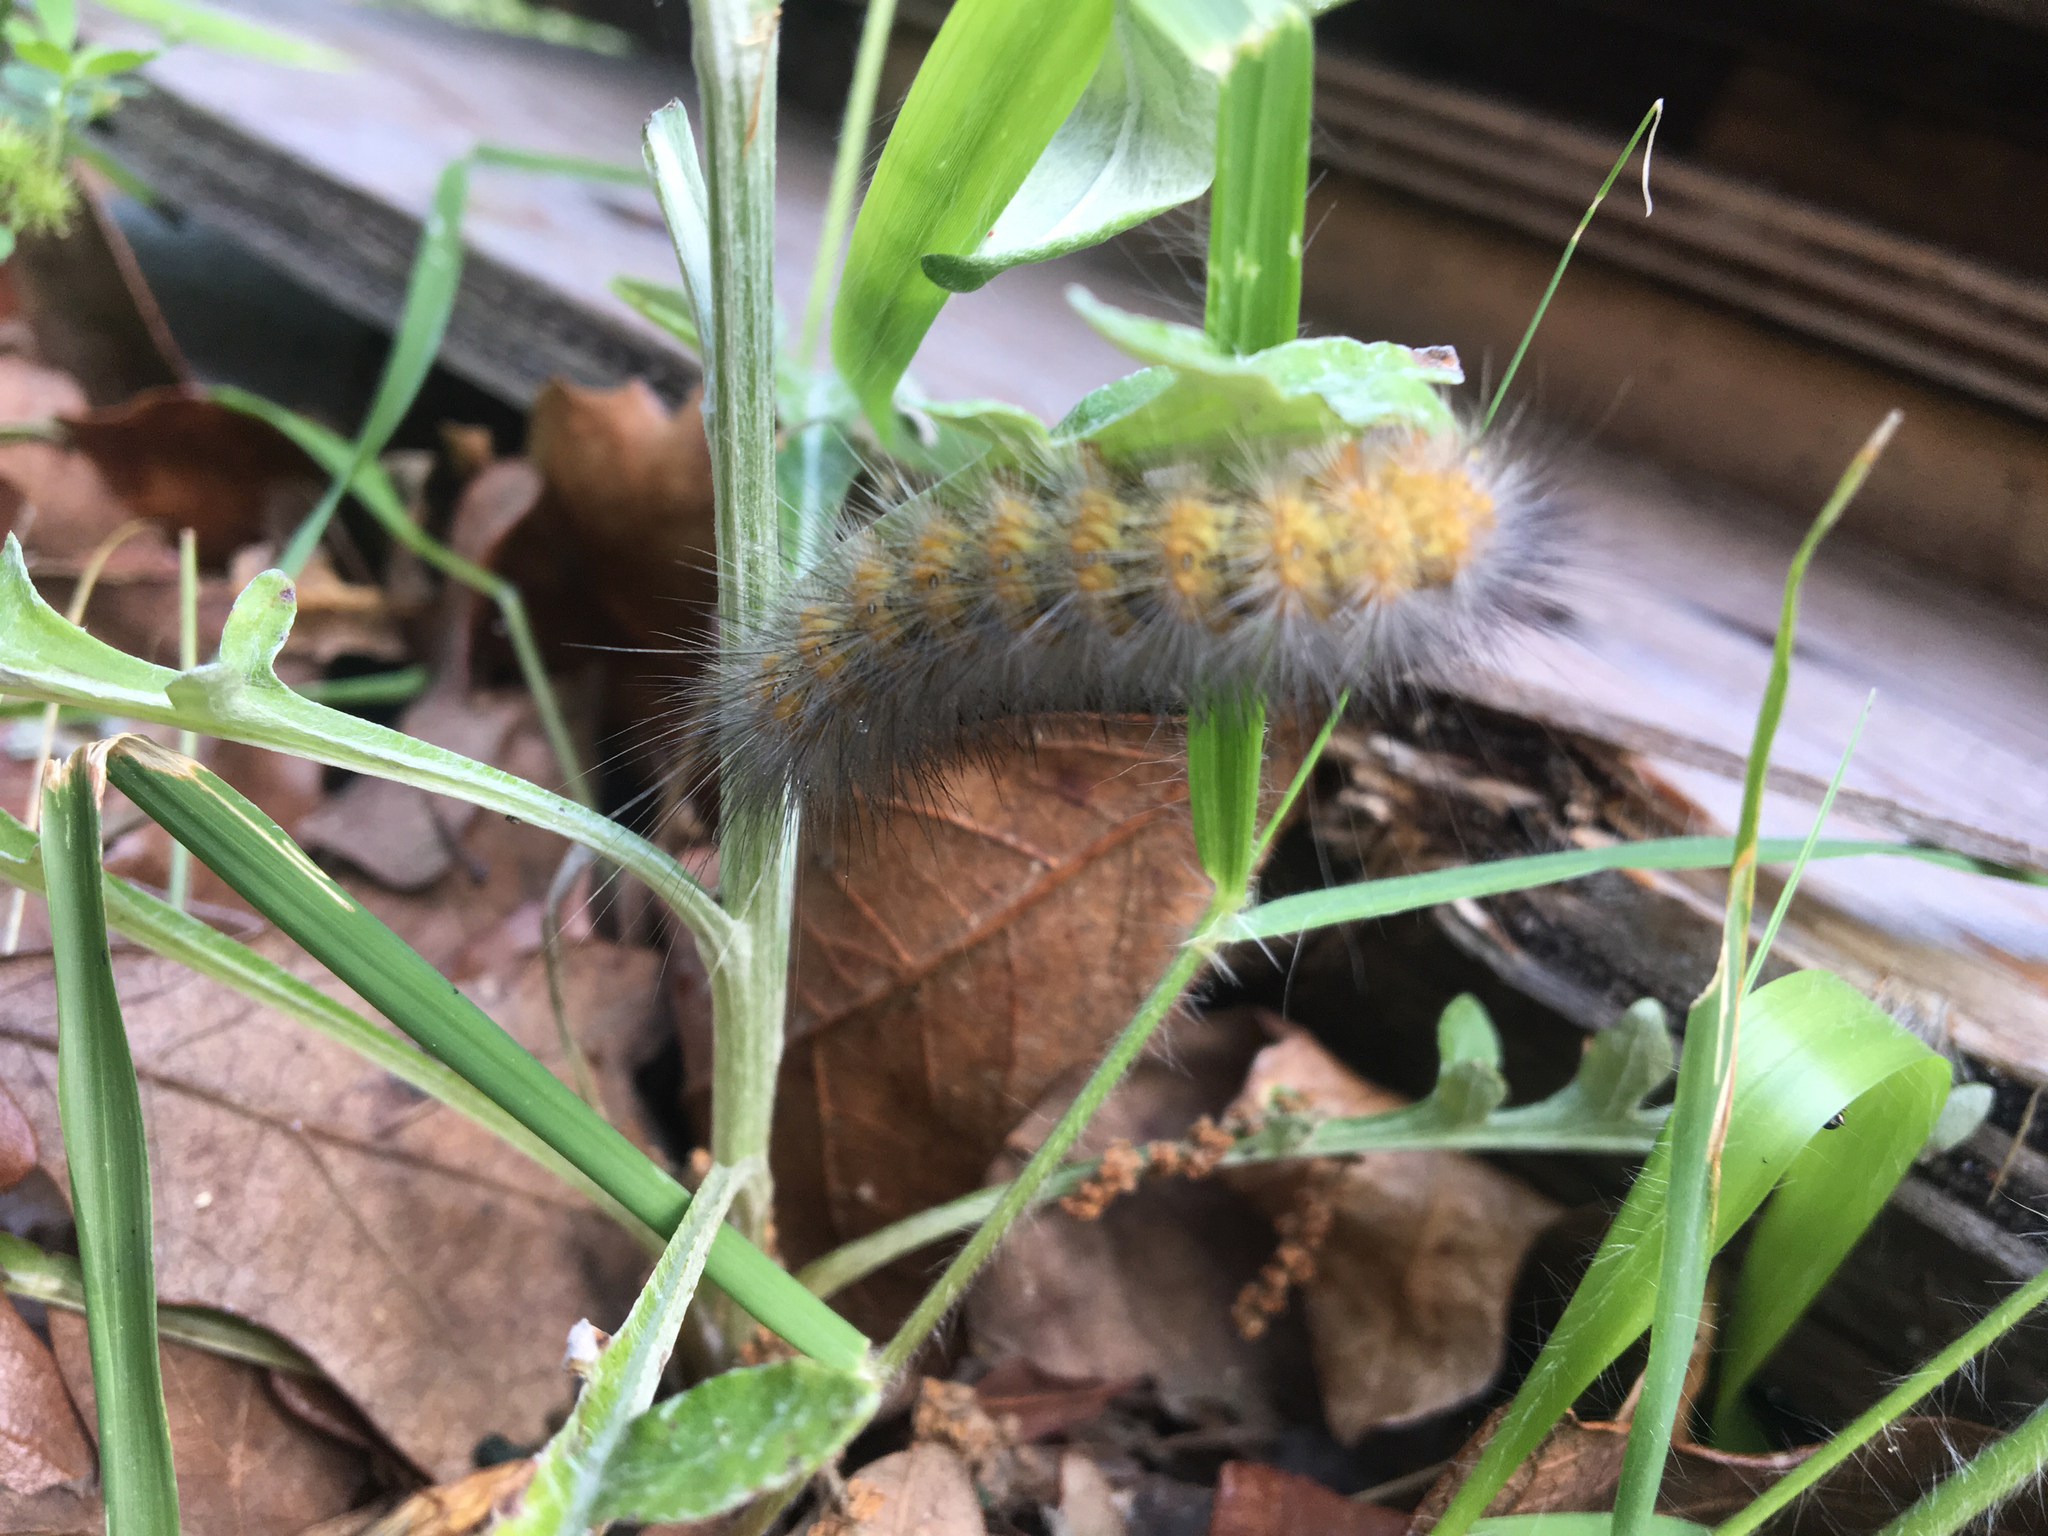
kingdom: Animalia
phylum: Arthropoda
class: Insecta
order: Lepidoptera
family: Erebidae
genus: Estigmene
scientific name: Estigmene acrea
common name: Salt marsh moth
